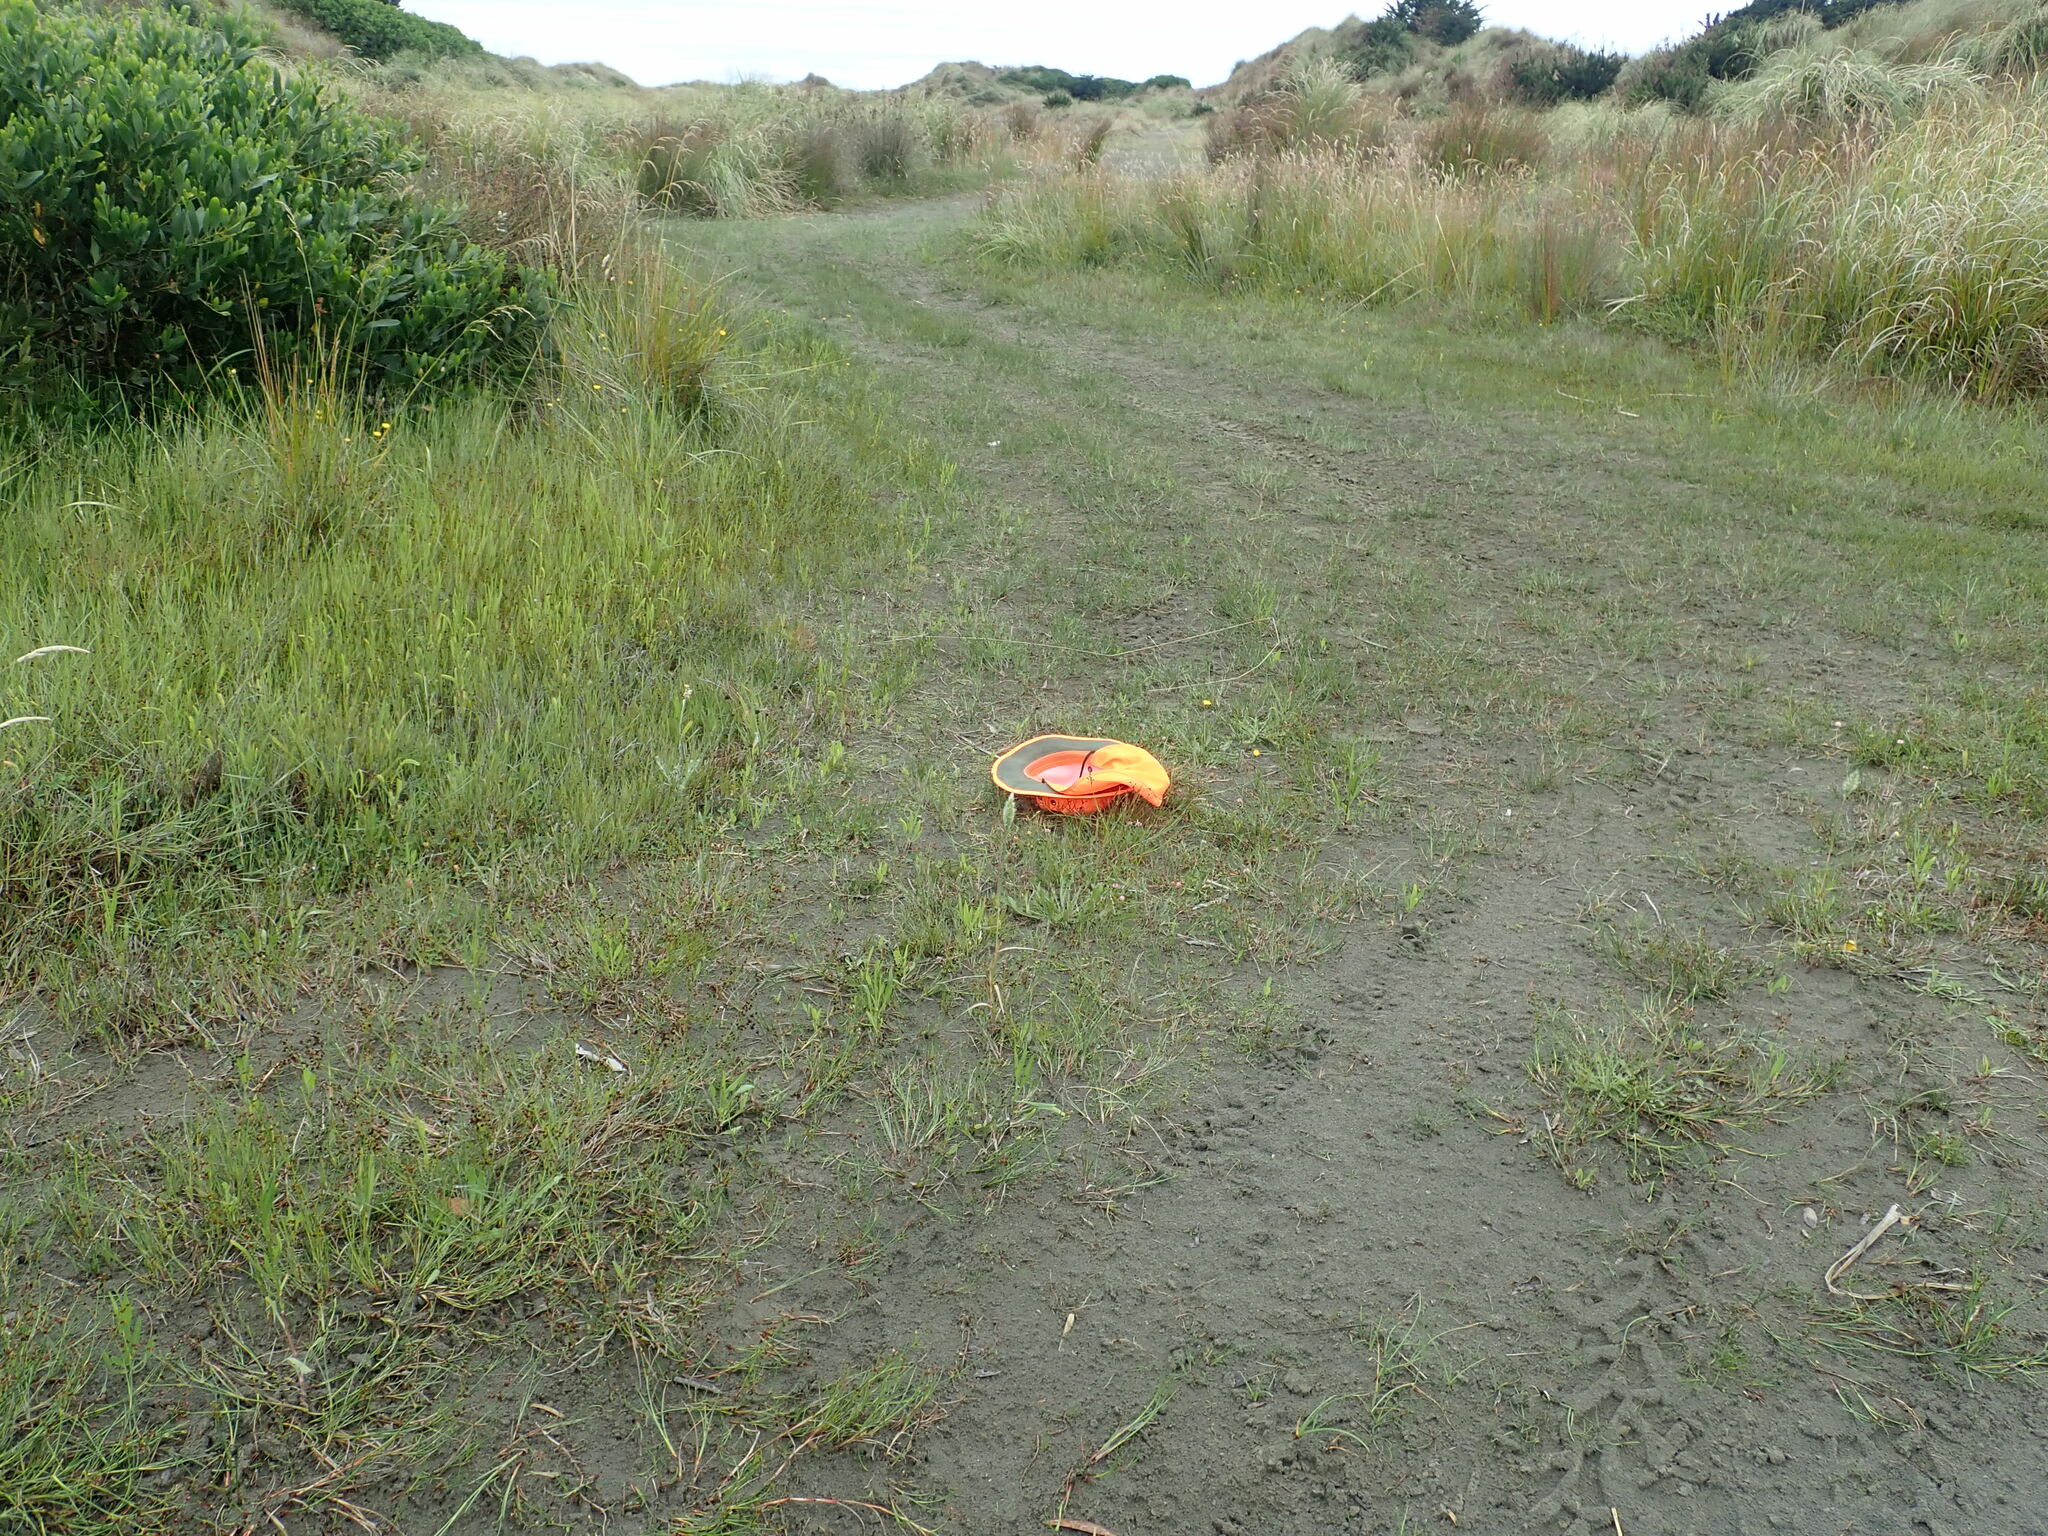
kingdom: Plantae
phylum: Tracheophyta
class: Magnoliopsida
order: Ranunculales
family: Ranunculaceae
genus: Ranunculus
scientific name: Ranunculus acaulis
